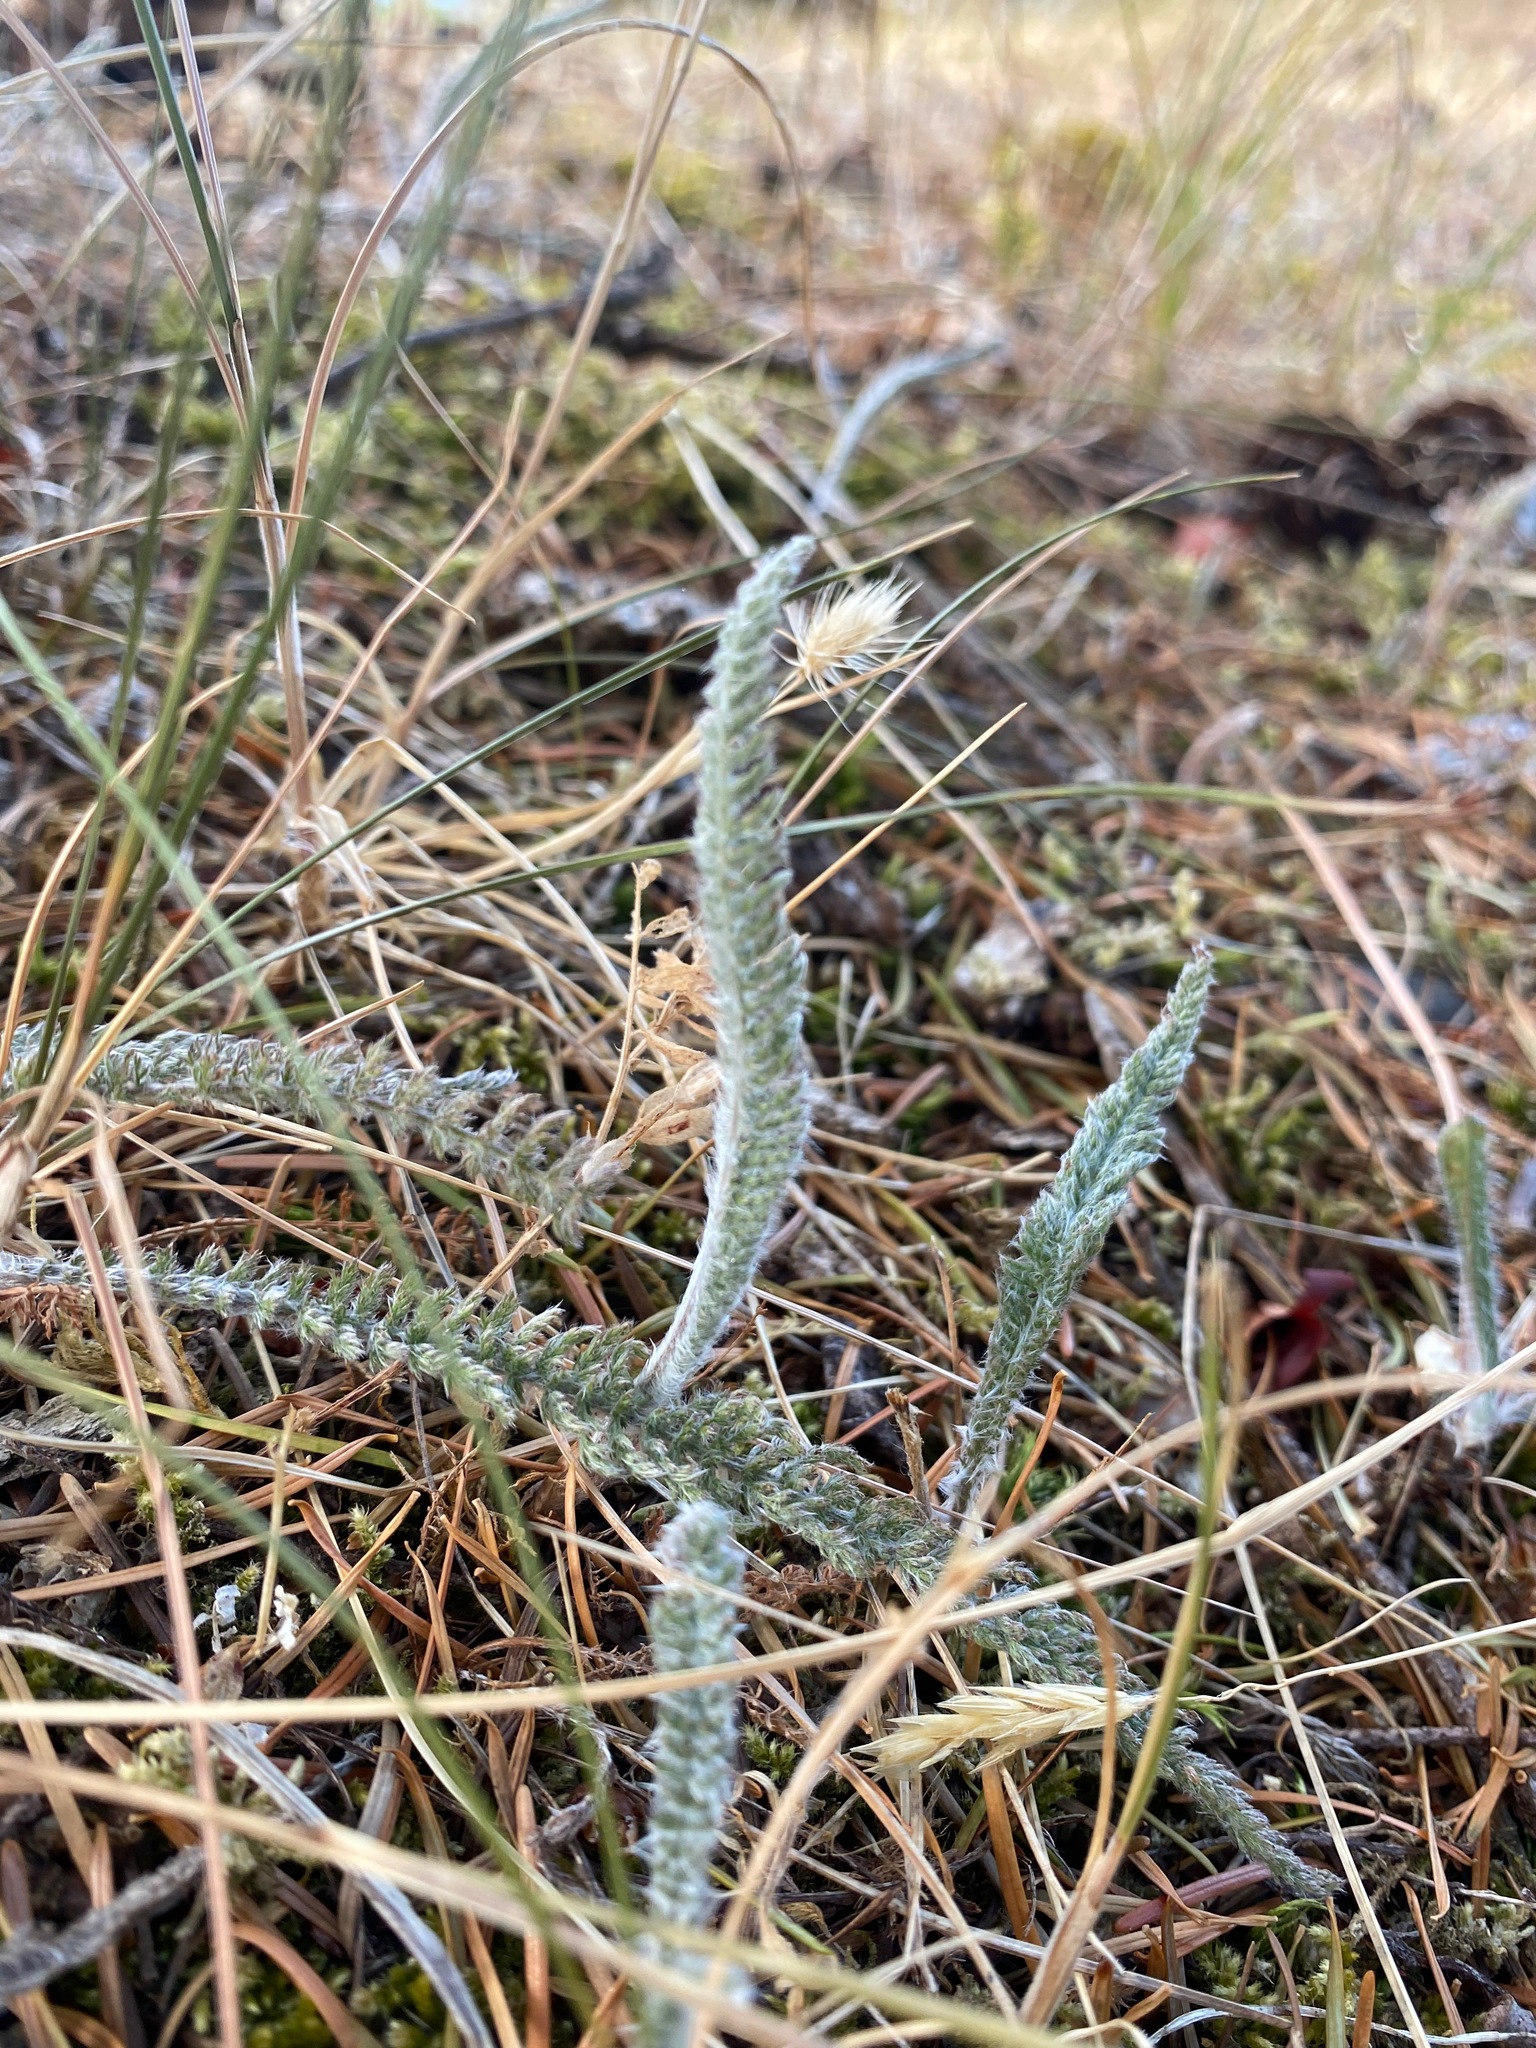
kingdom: Plantae
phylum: Tracheophyta
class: Magnoliopsida
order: Asterales
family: Asteraceae
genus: Achillea
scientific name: Achillea millefolium
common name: Yarrow
